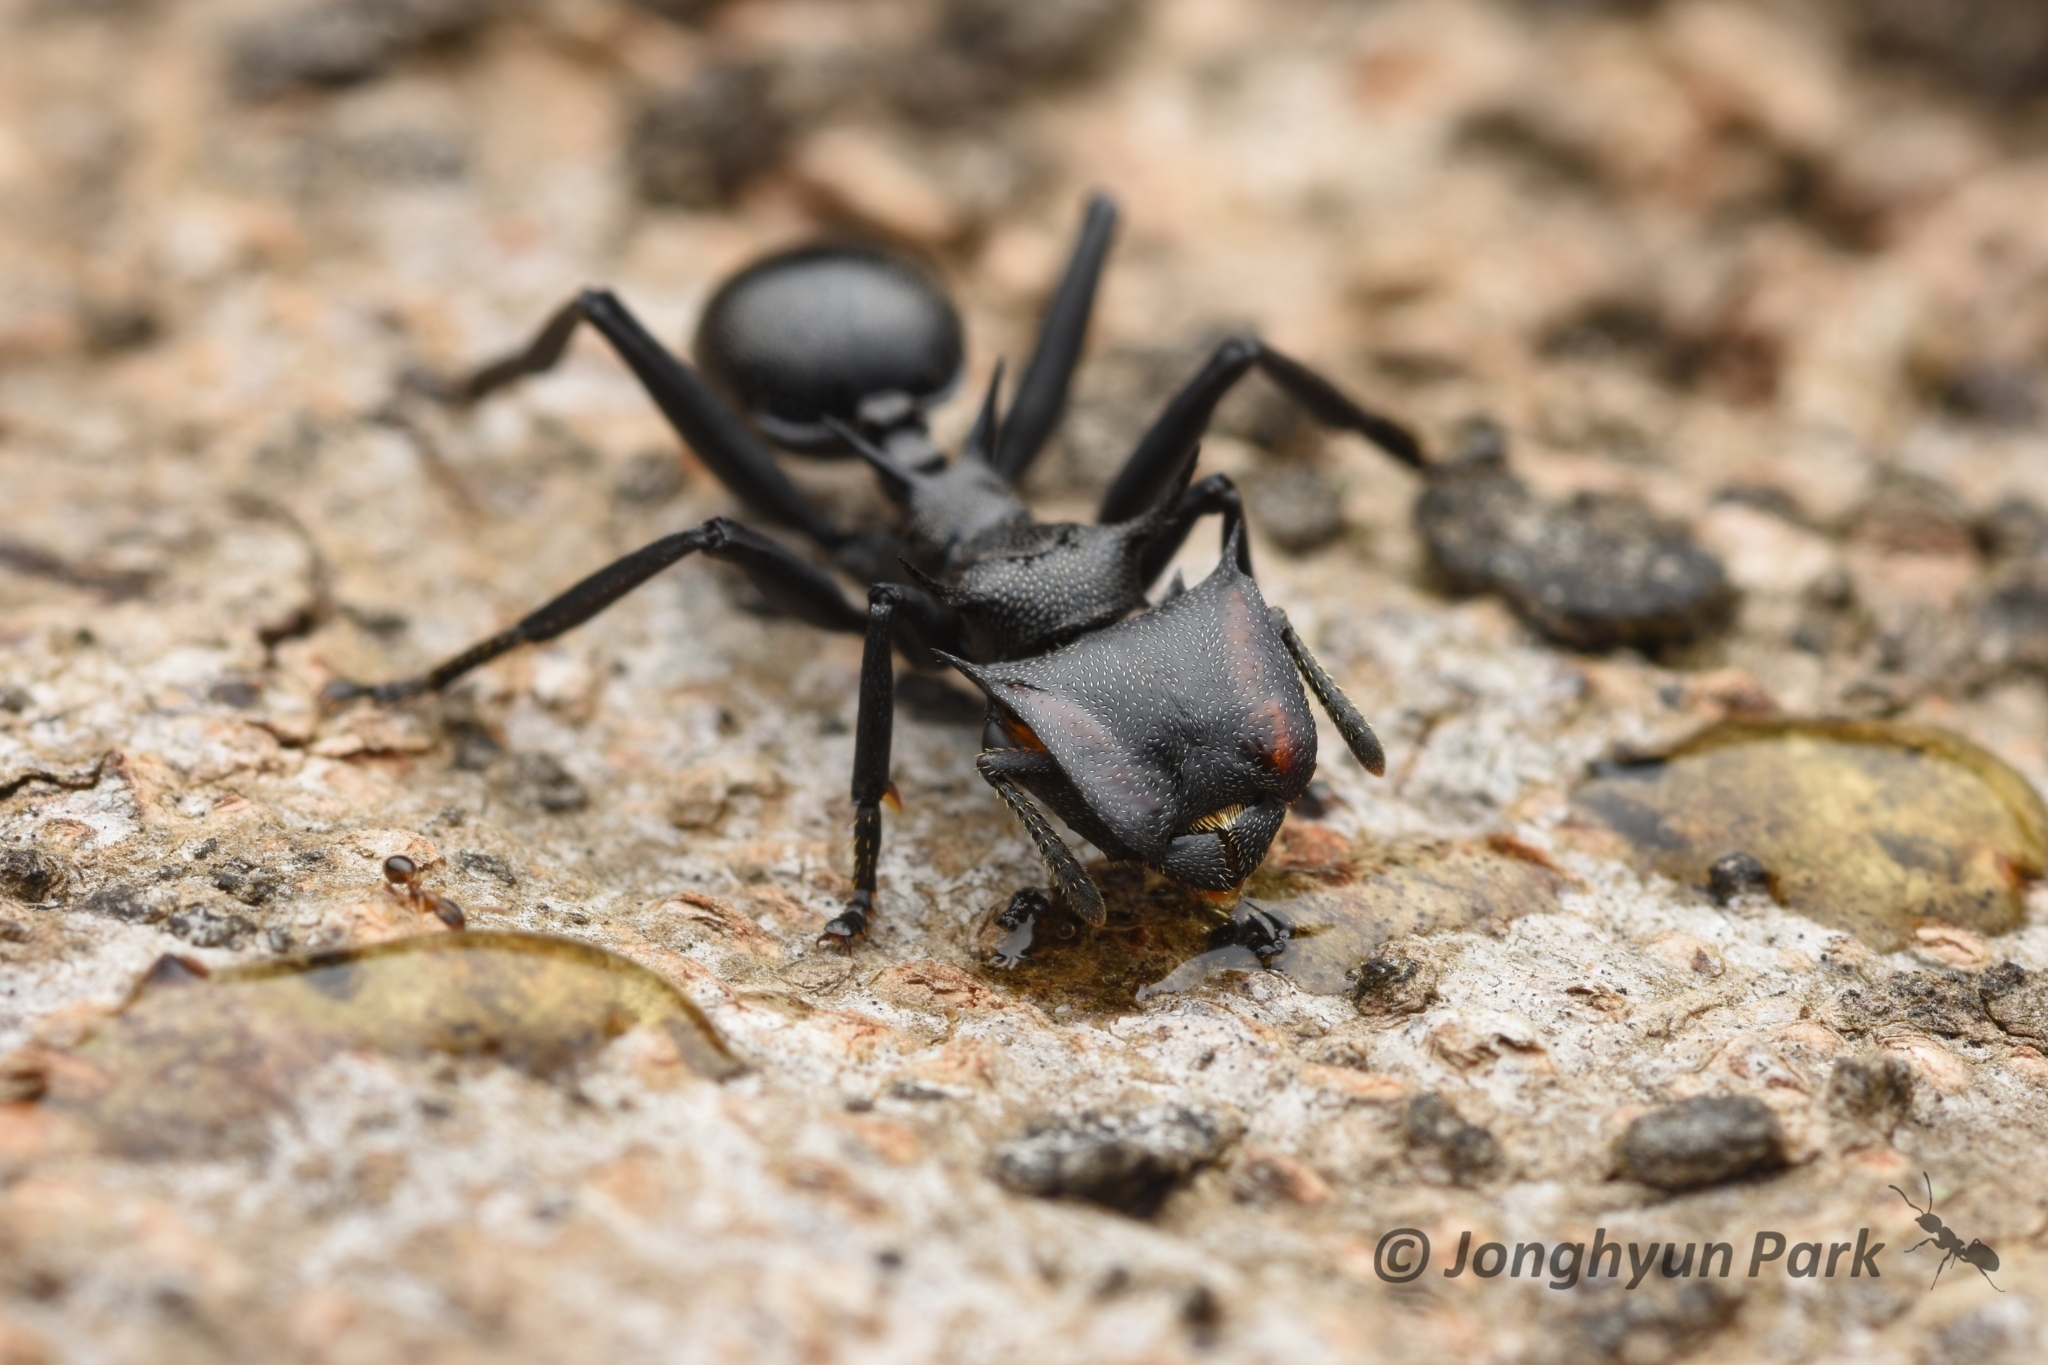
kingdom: Animalia
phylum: Arthropoda
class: Insecta
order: Hymenoptera
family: Formicidae
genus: Cephalotes
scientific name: Cephalotes atratus
